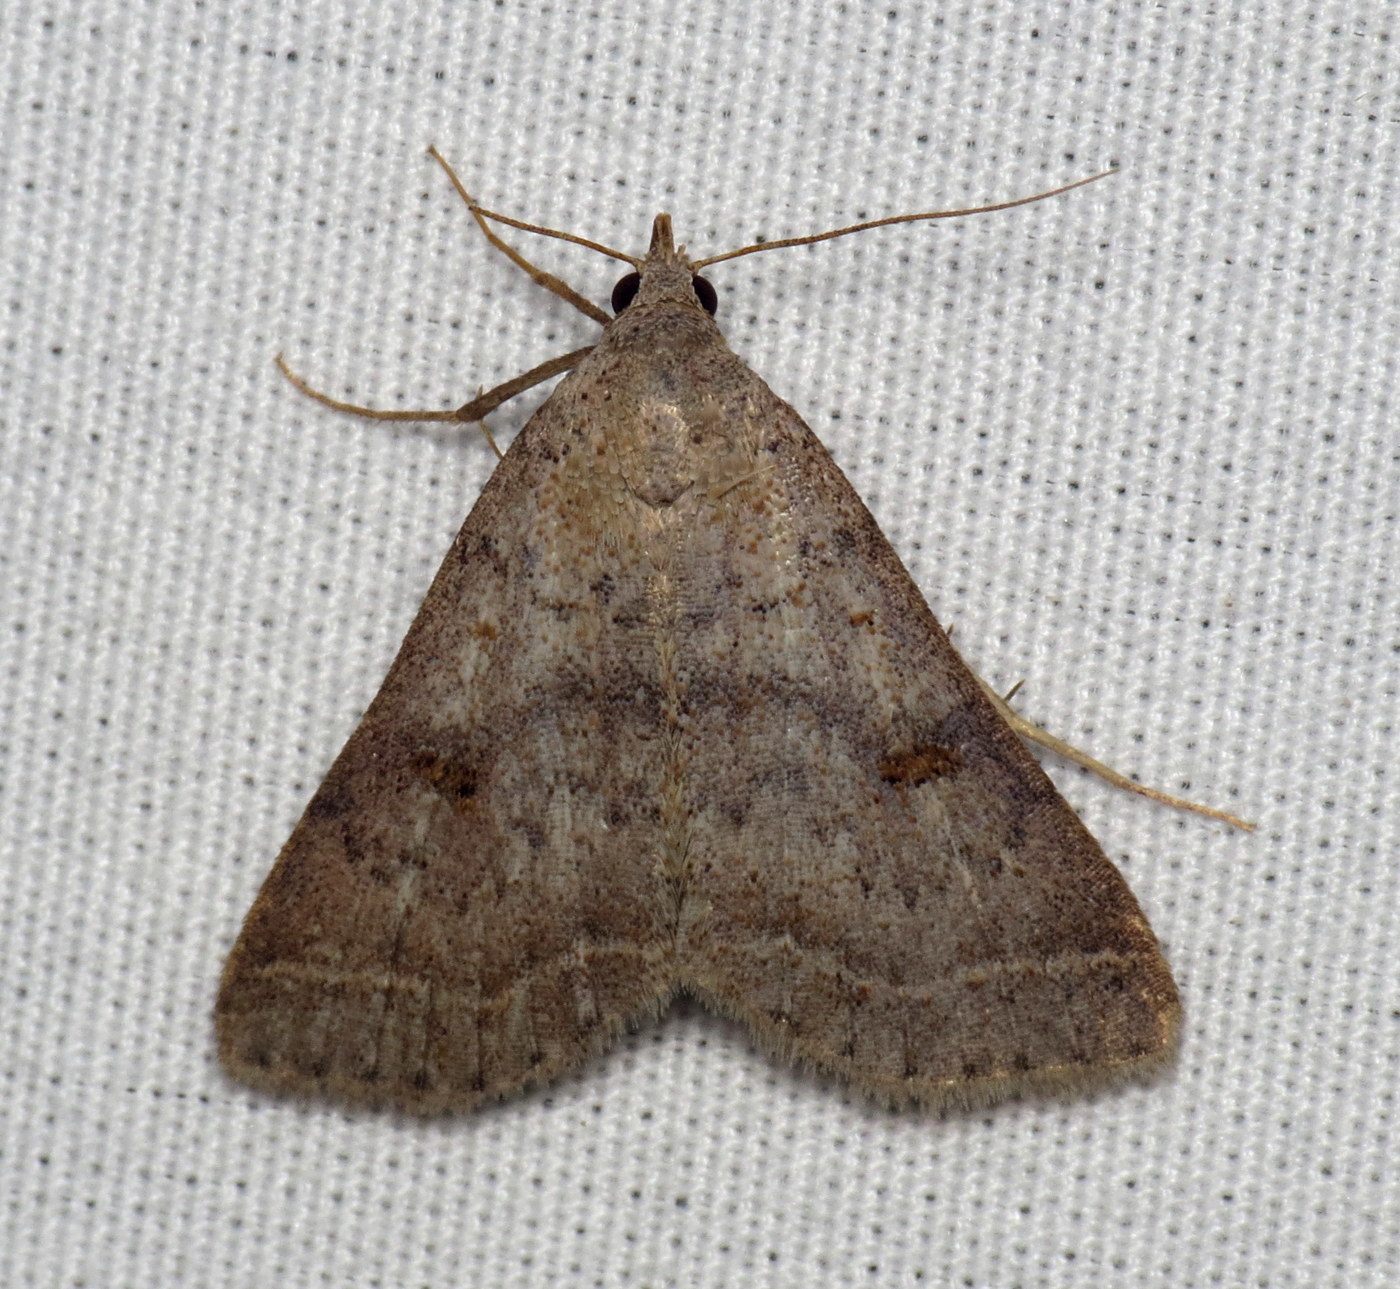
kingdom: Animalia
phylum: Arthropoda
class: Insecta
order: Lepidoptera
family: Erebidae
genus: Bleptina
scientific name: Bleptina caradrinalis
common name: Bent-winged owlet
